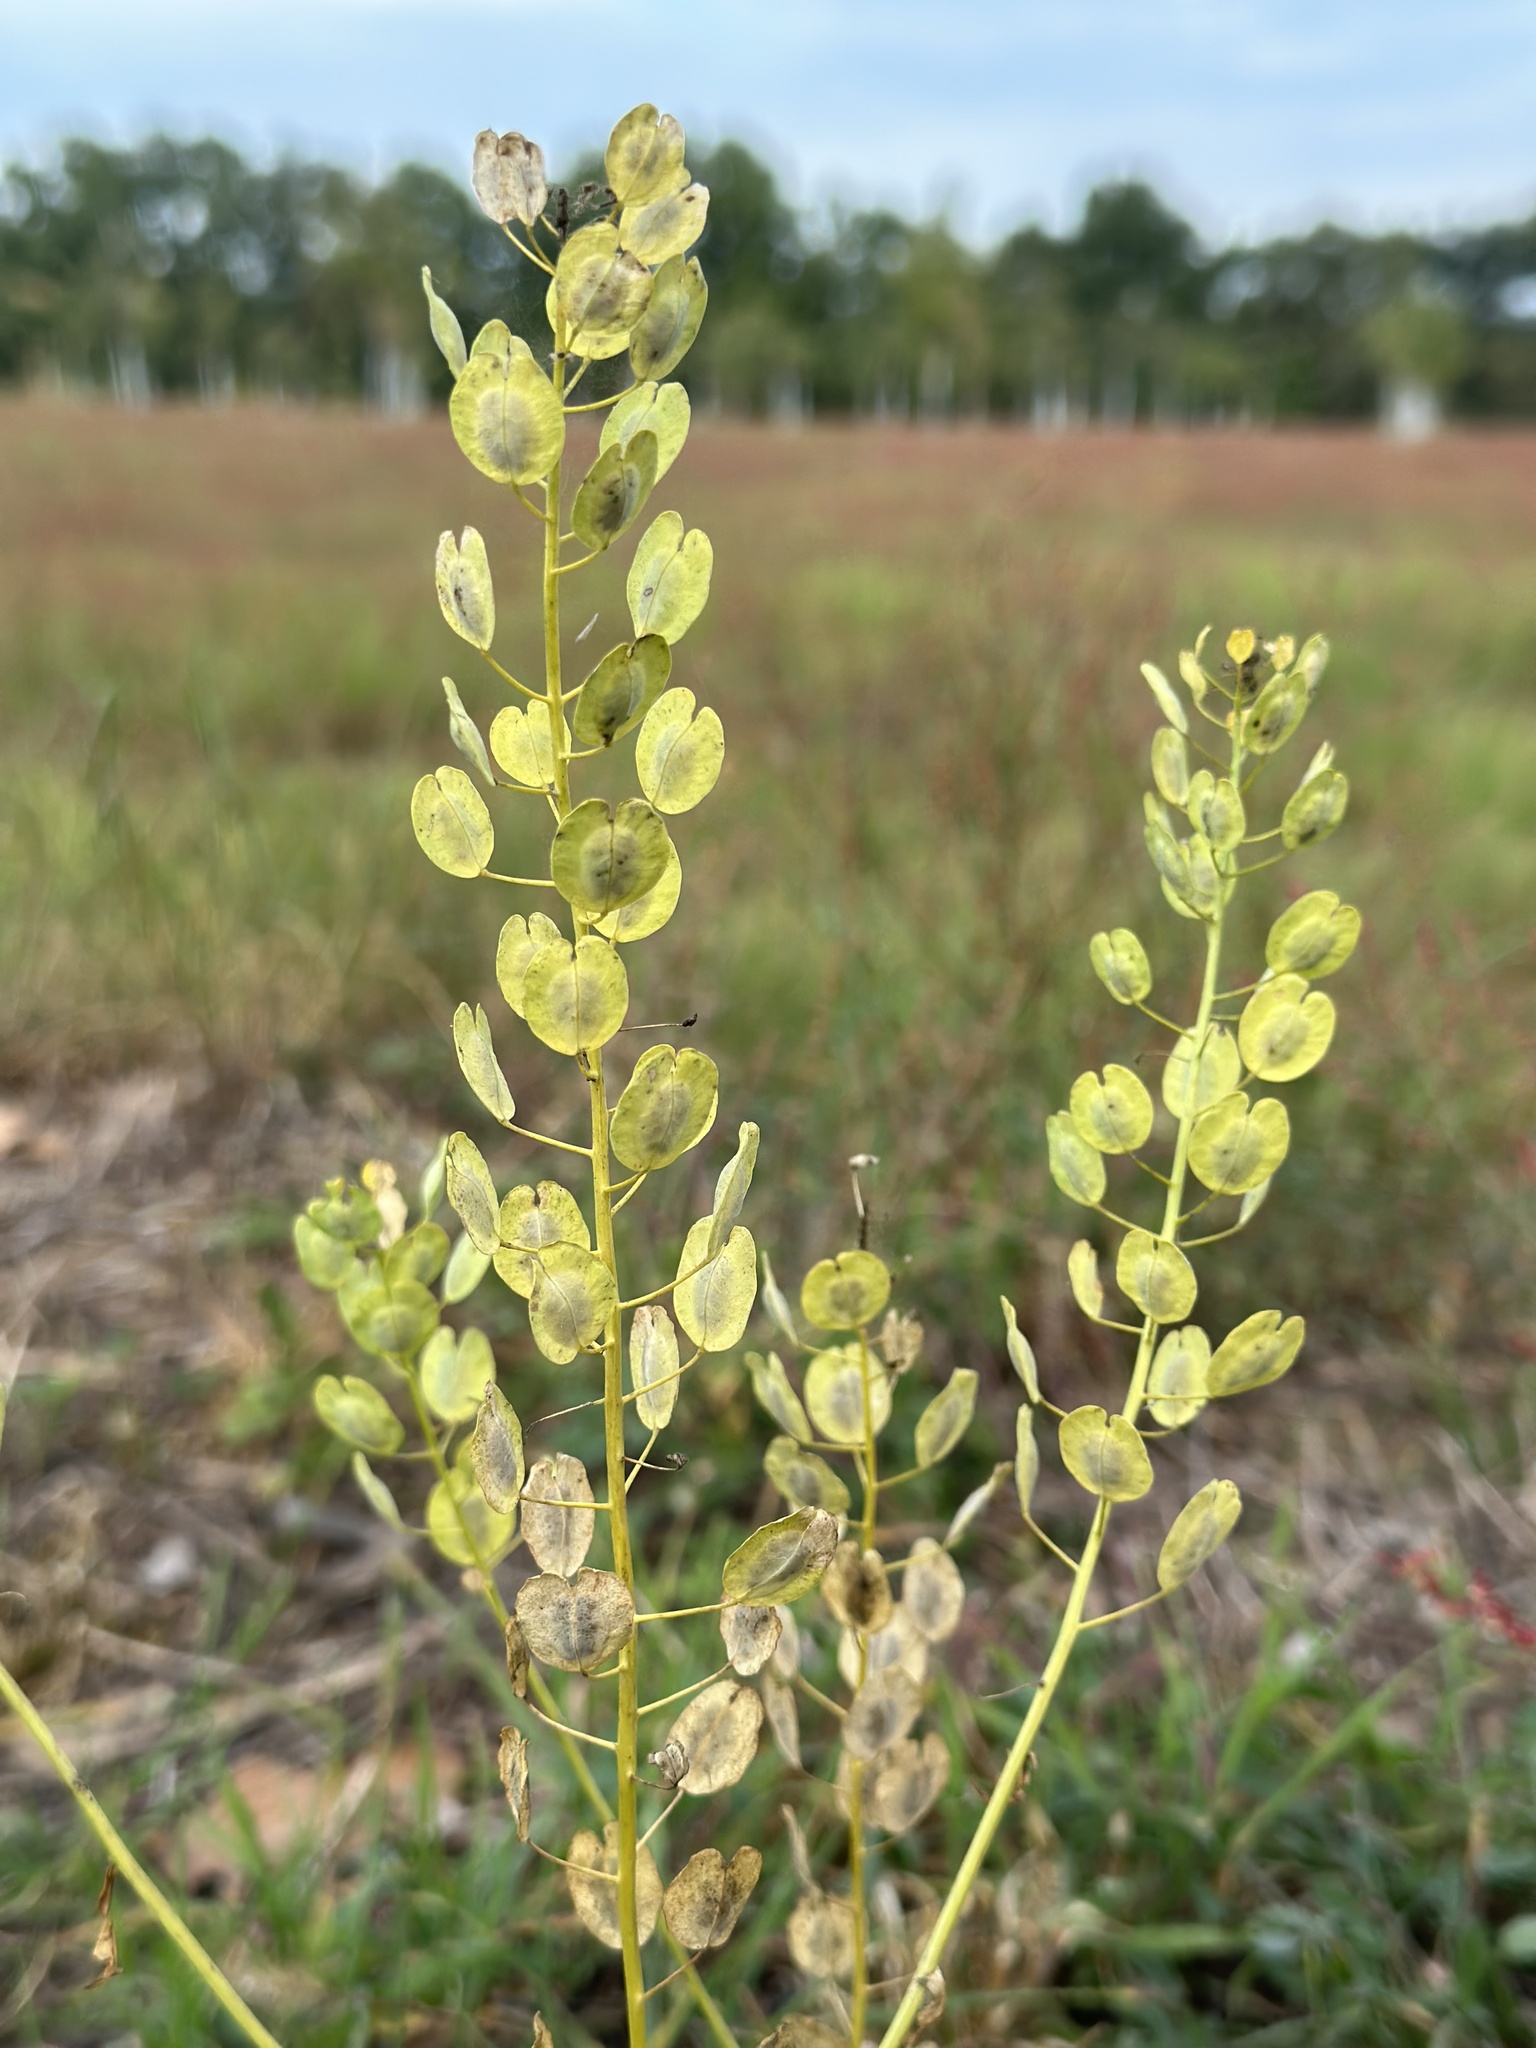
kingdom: Plantae
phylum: Tracheophyta
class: Magnoliopsida
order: Brassicales
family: Brassicaceae
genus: Thlaspi
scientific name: Thlaspi arvense
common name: Field pennycress
